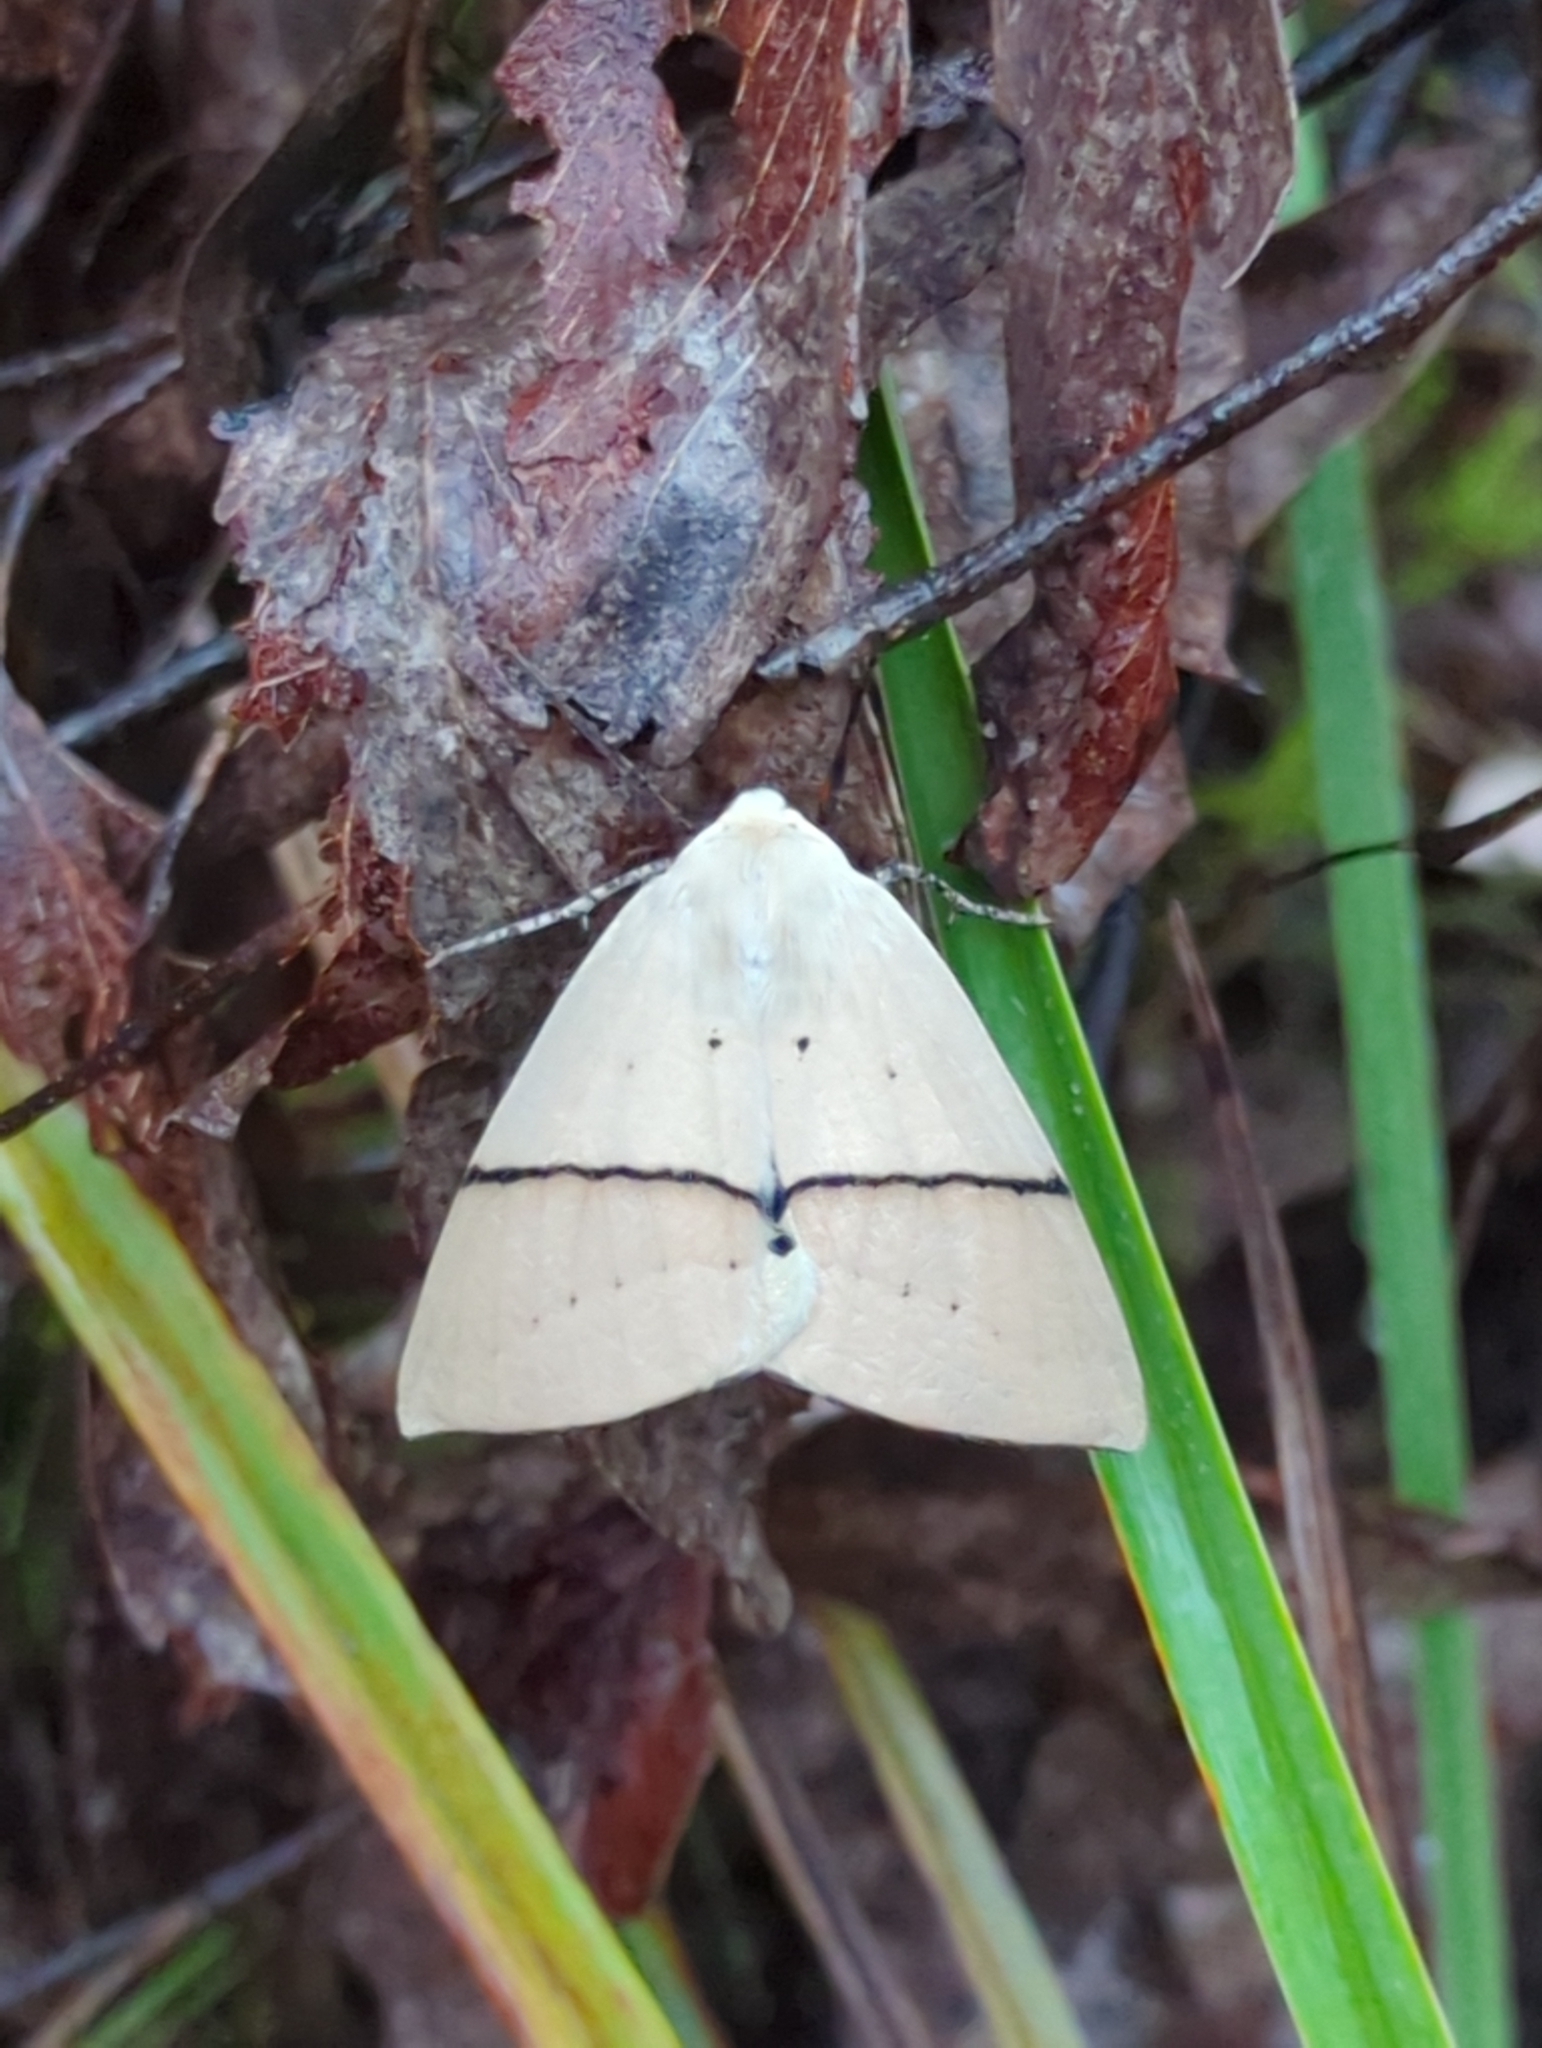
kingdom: Animalia
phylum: Arthropoda
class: Insecta
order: Lepidoptera
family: Geometridae
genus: Gastrophora
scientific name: Gastrophora henricaria
